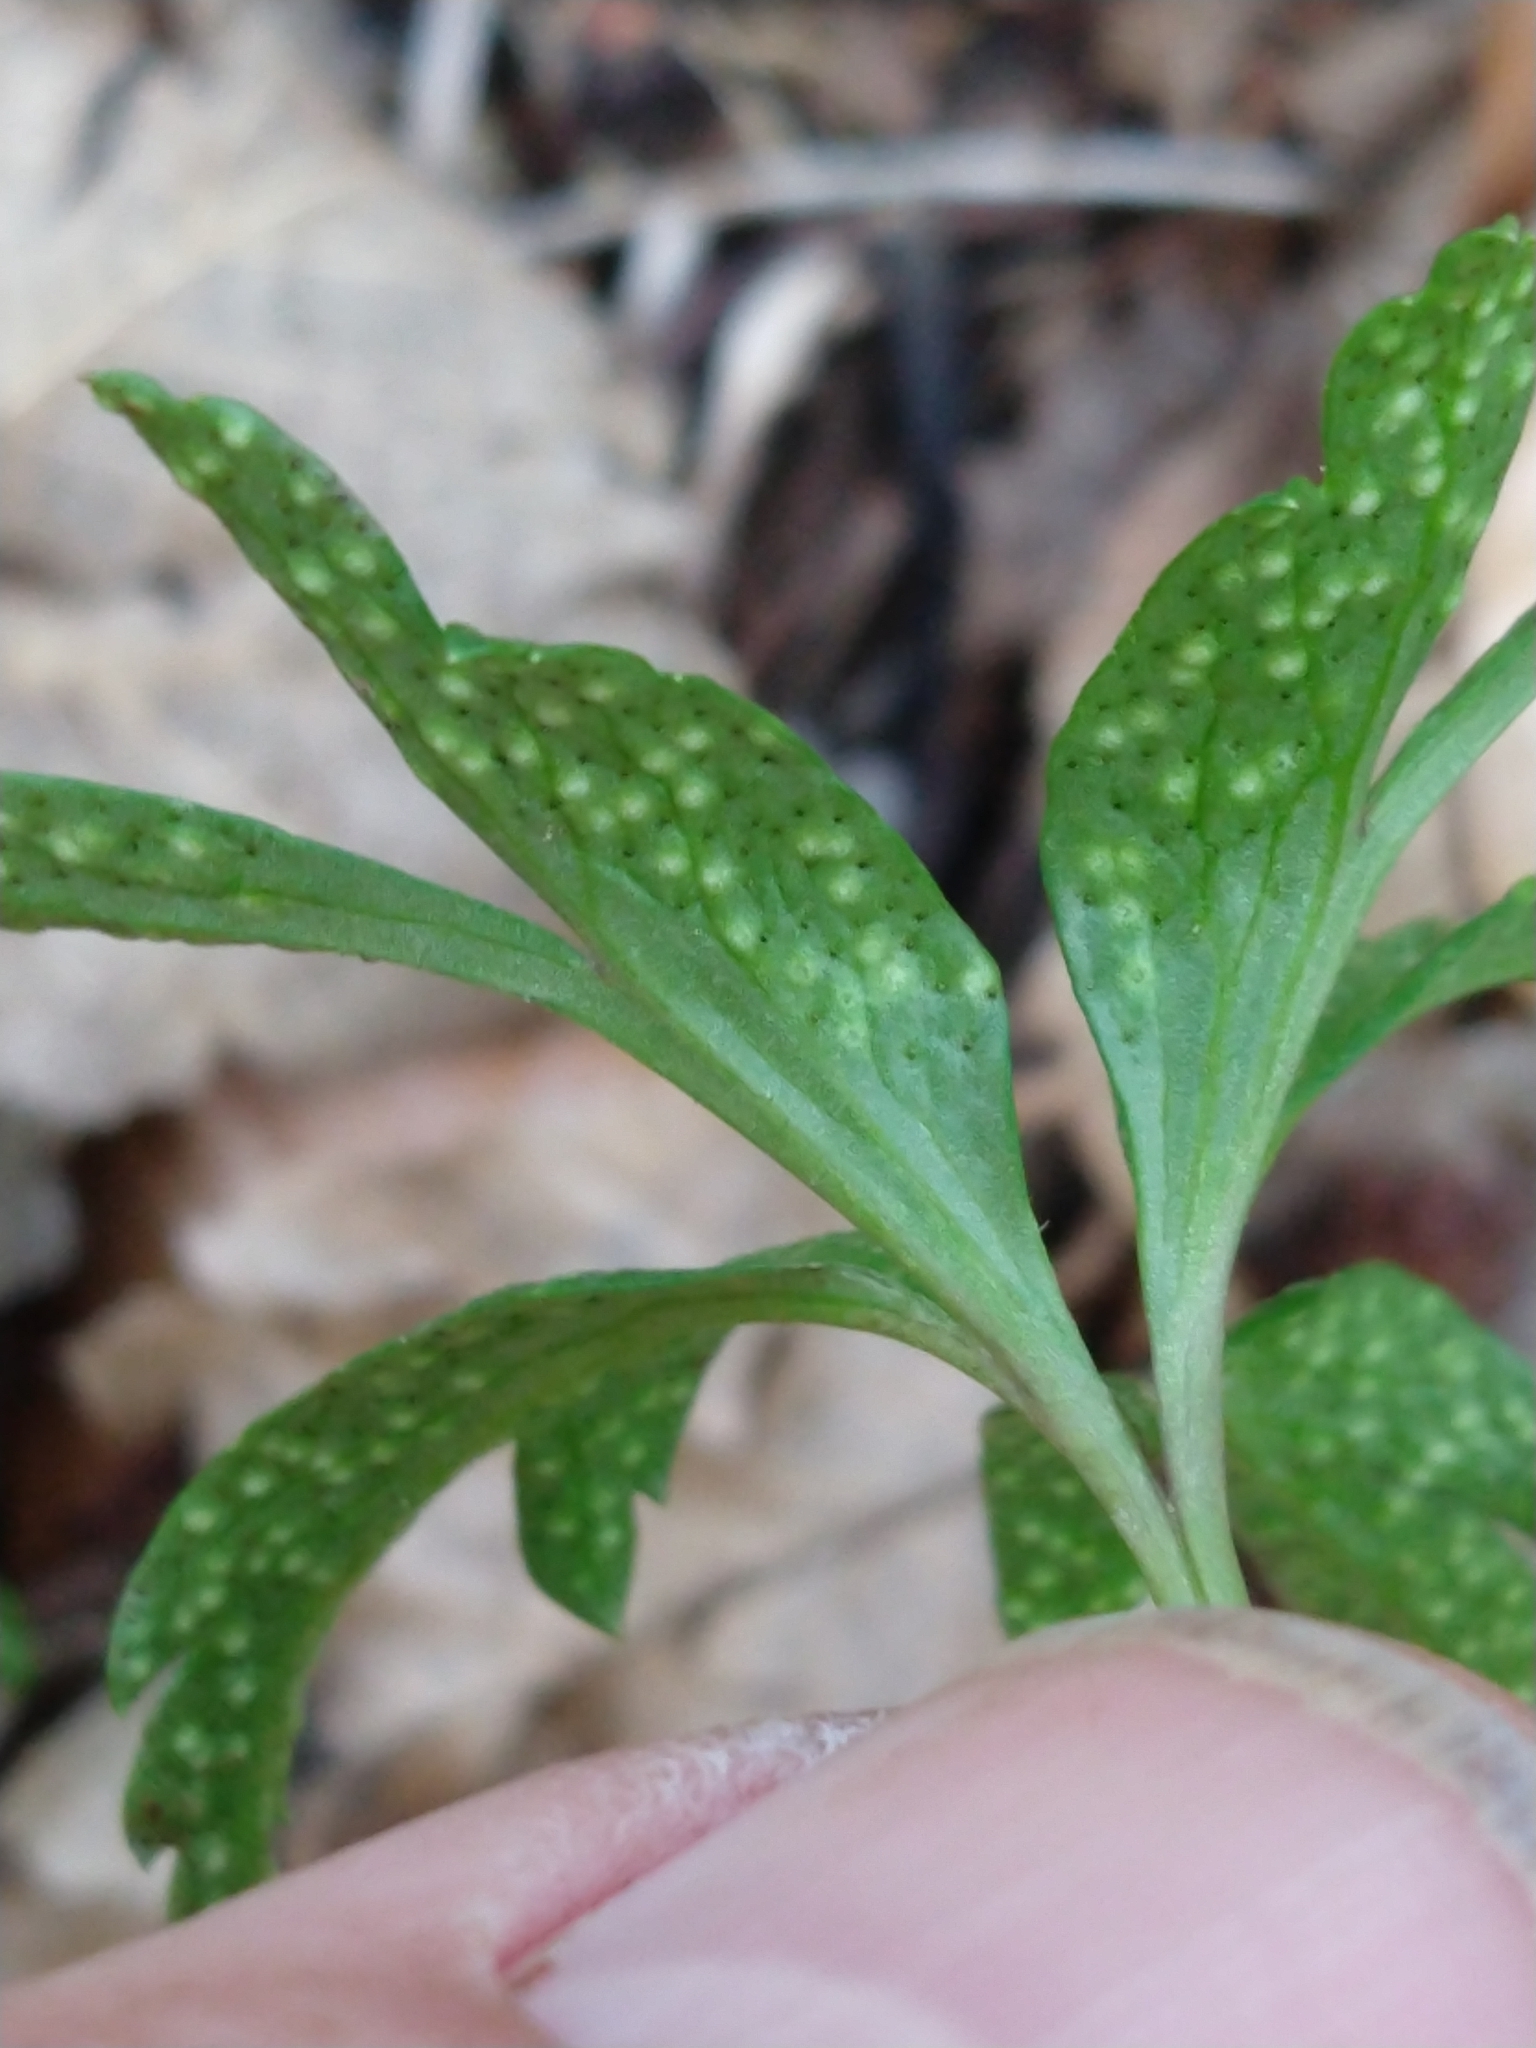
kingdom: Fungi
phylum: Basidiomycota
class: Pucciniomycetes
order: Pucciniales
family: Tranzscheliaceae
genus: Tranzschelia
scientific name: Tranzschelia pruni-spinosae
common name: Blackthorn rust
